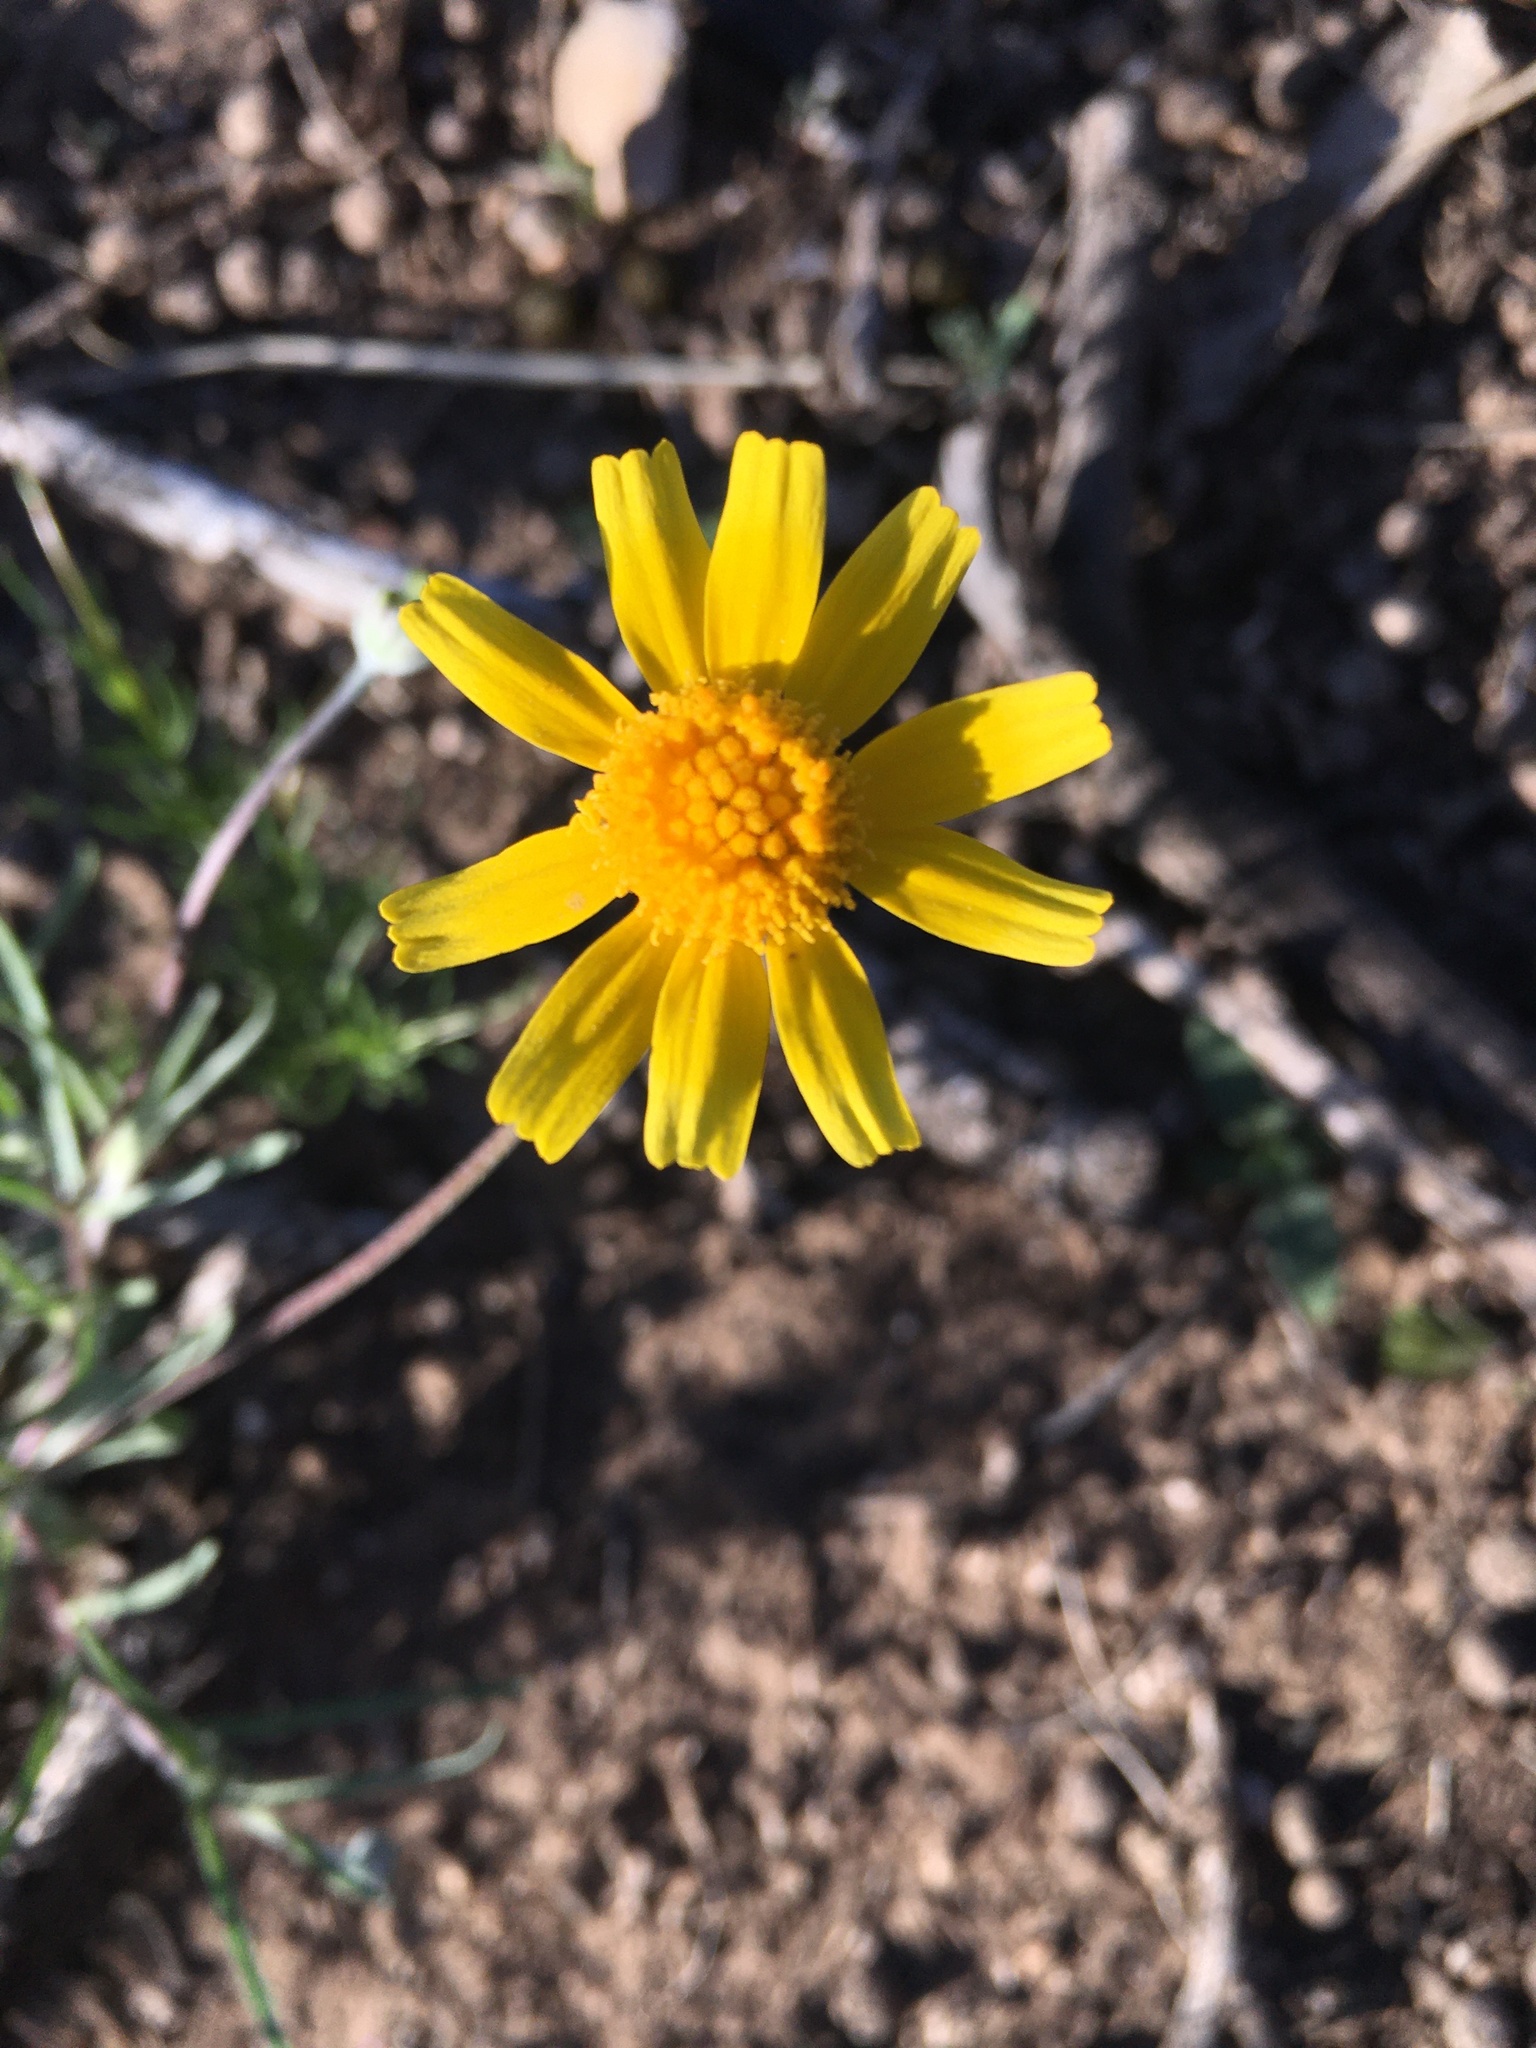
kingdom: Plantae
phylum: Tracheophyta
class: Magnoliopsida
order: Asterales
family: Asteraceae
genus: Tetraneuris
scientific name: Tetraneuris scaposa
